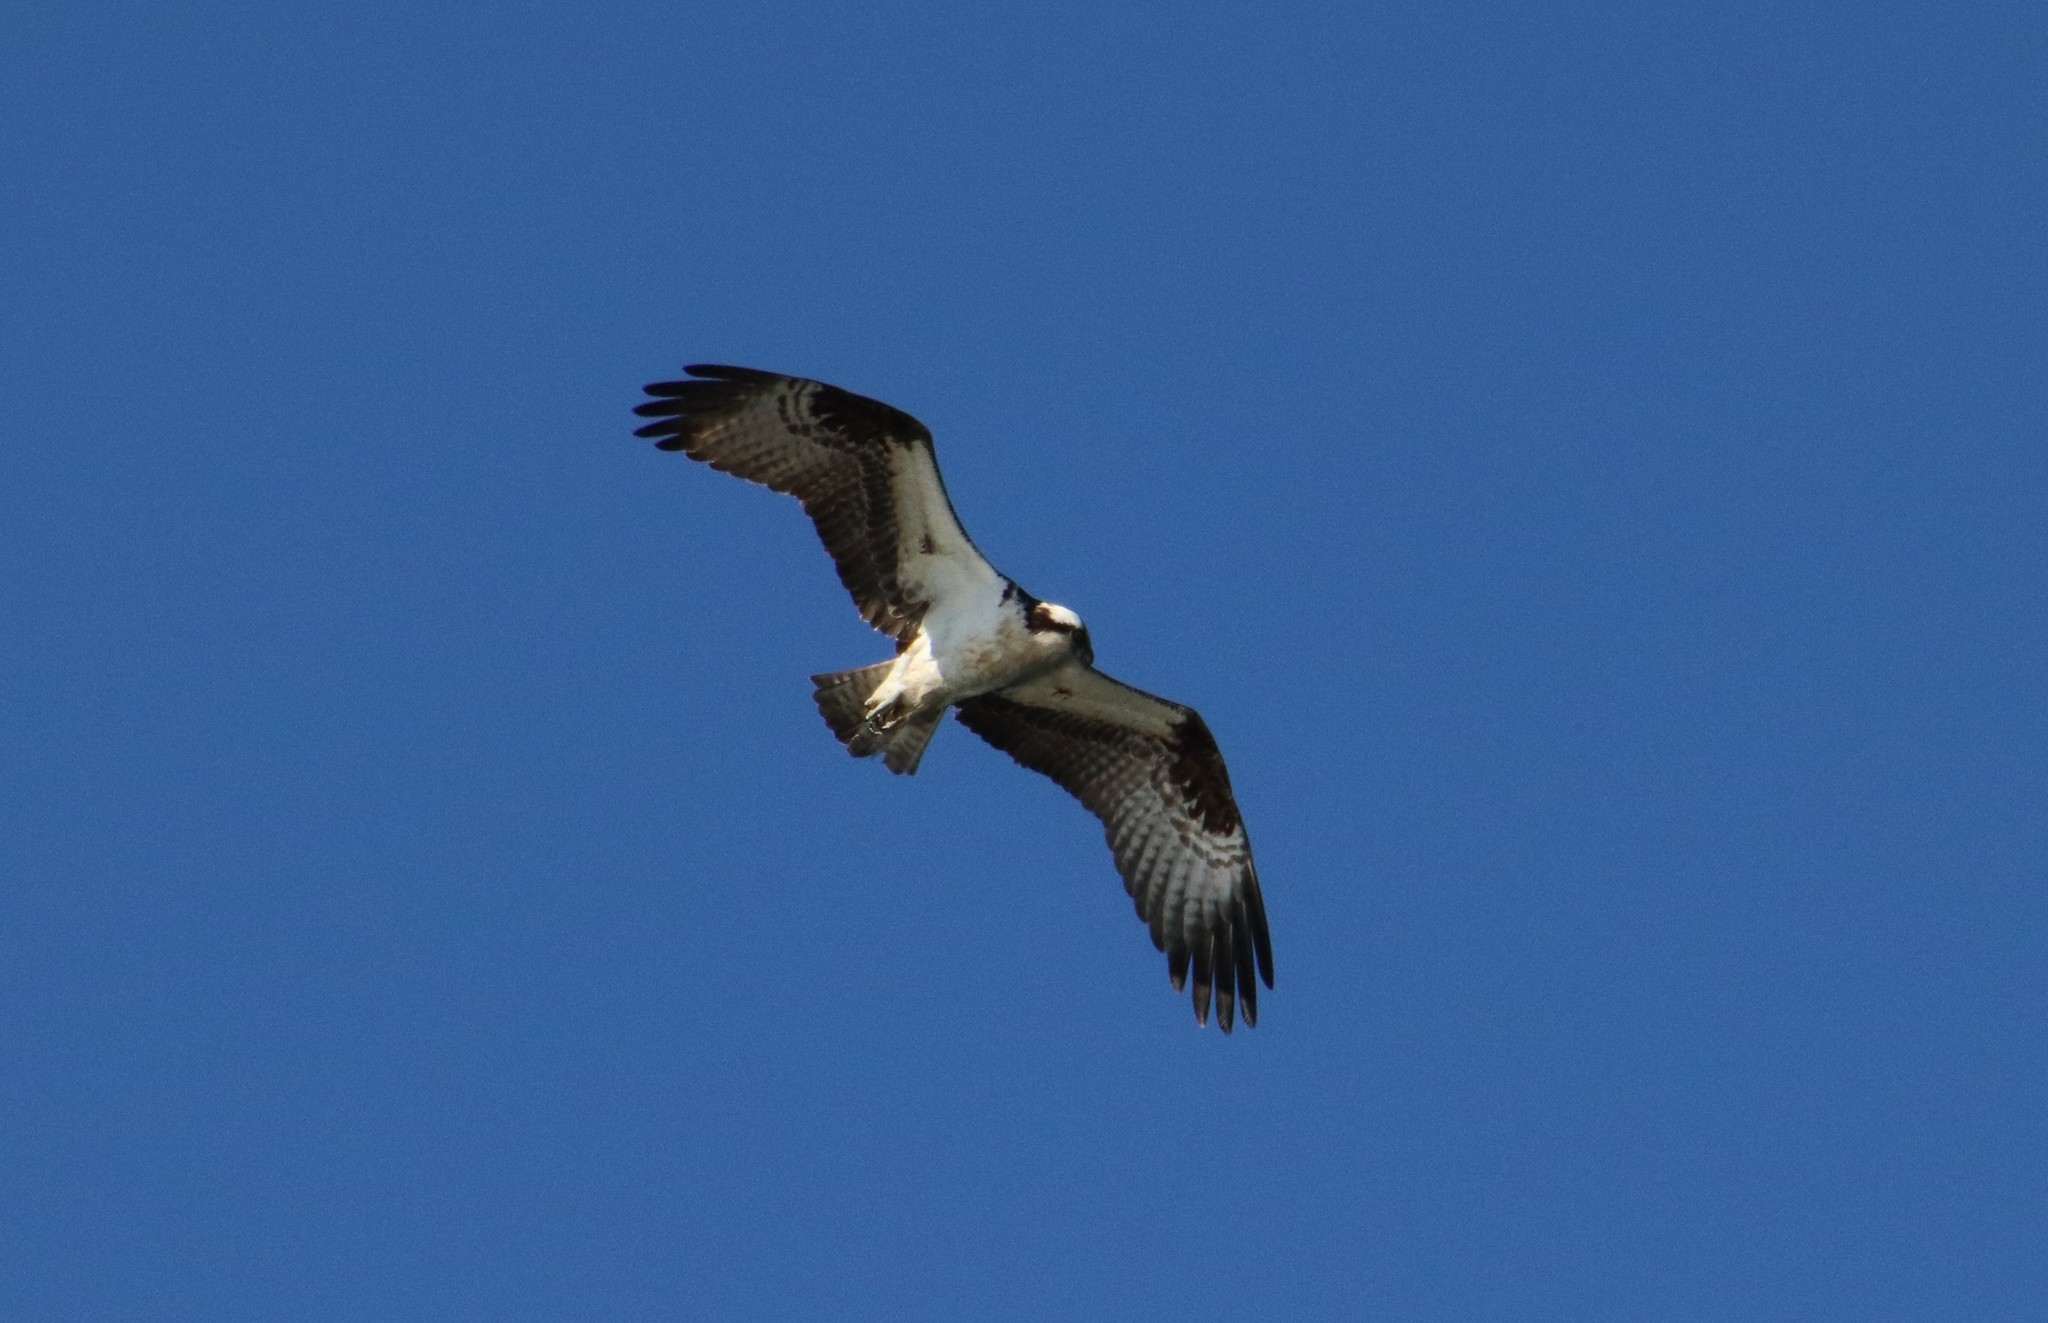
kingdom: Animalia
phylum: Chordata
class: Aves
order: Accipitriformes
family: Pandionidae
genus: Pandion
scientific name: Pandion haliaetus
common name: Osprey
